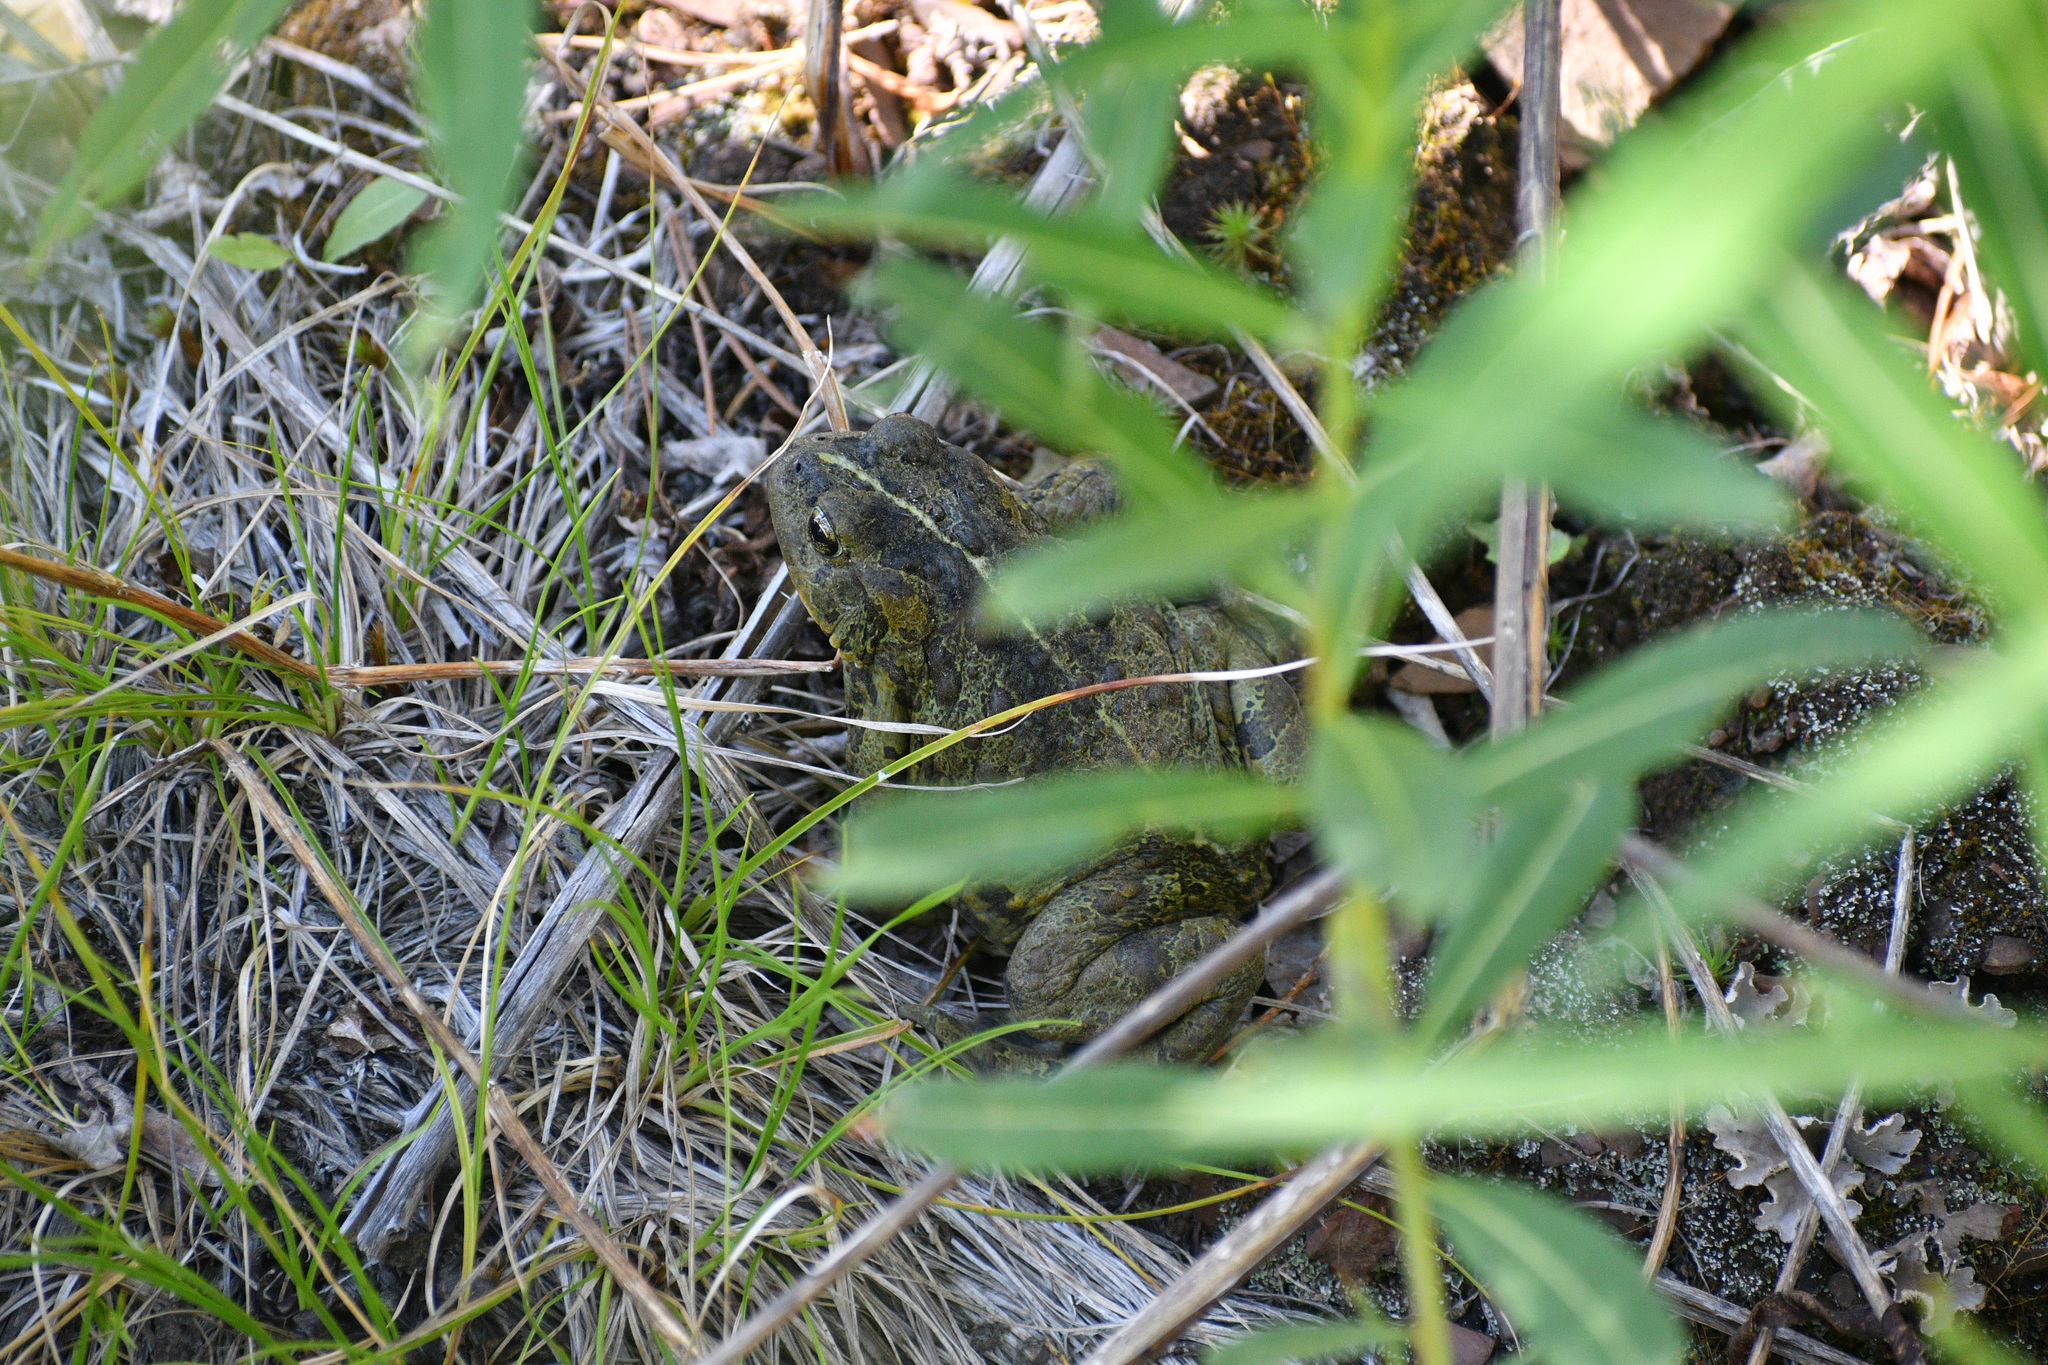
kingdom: Animalia
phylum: Chordata
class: Amphibia
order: Anura
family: Bufonidae
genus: Anaxyrus
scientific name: Anaxyrus boreas
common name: Western toad
